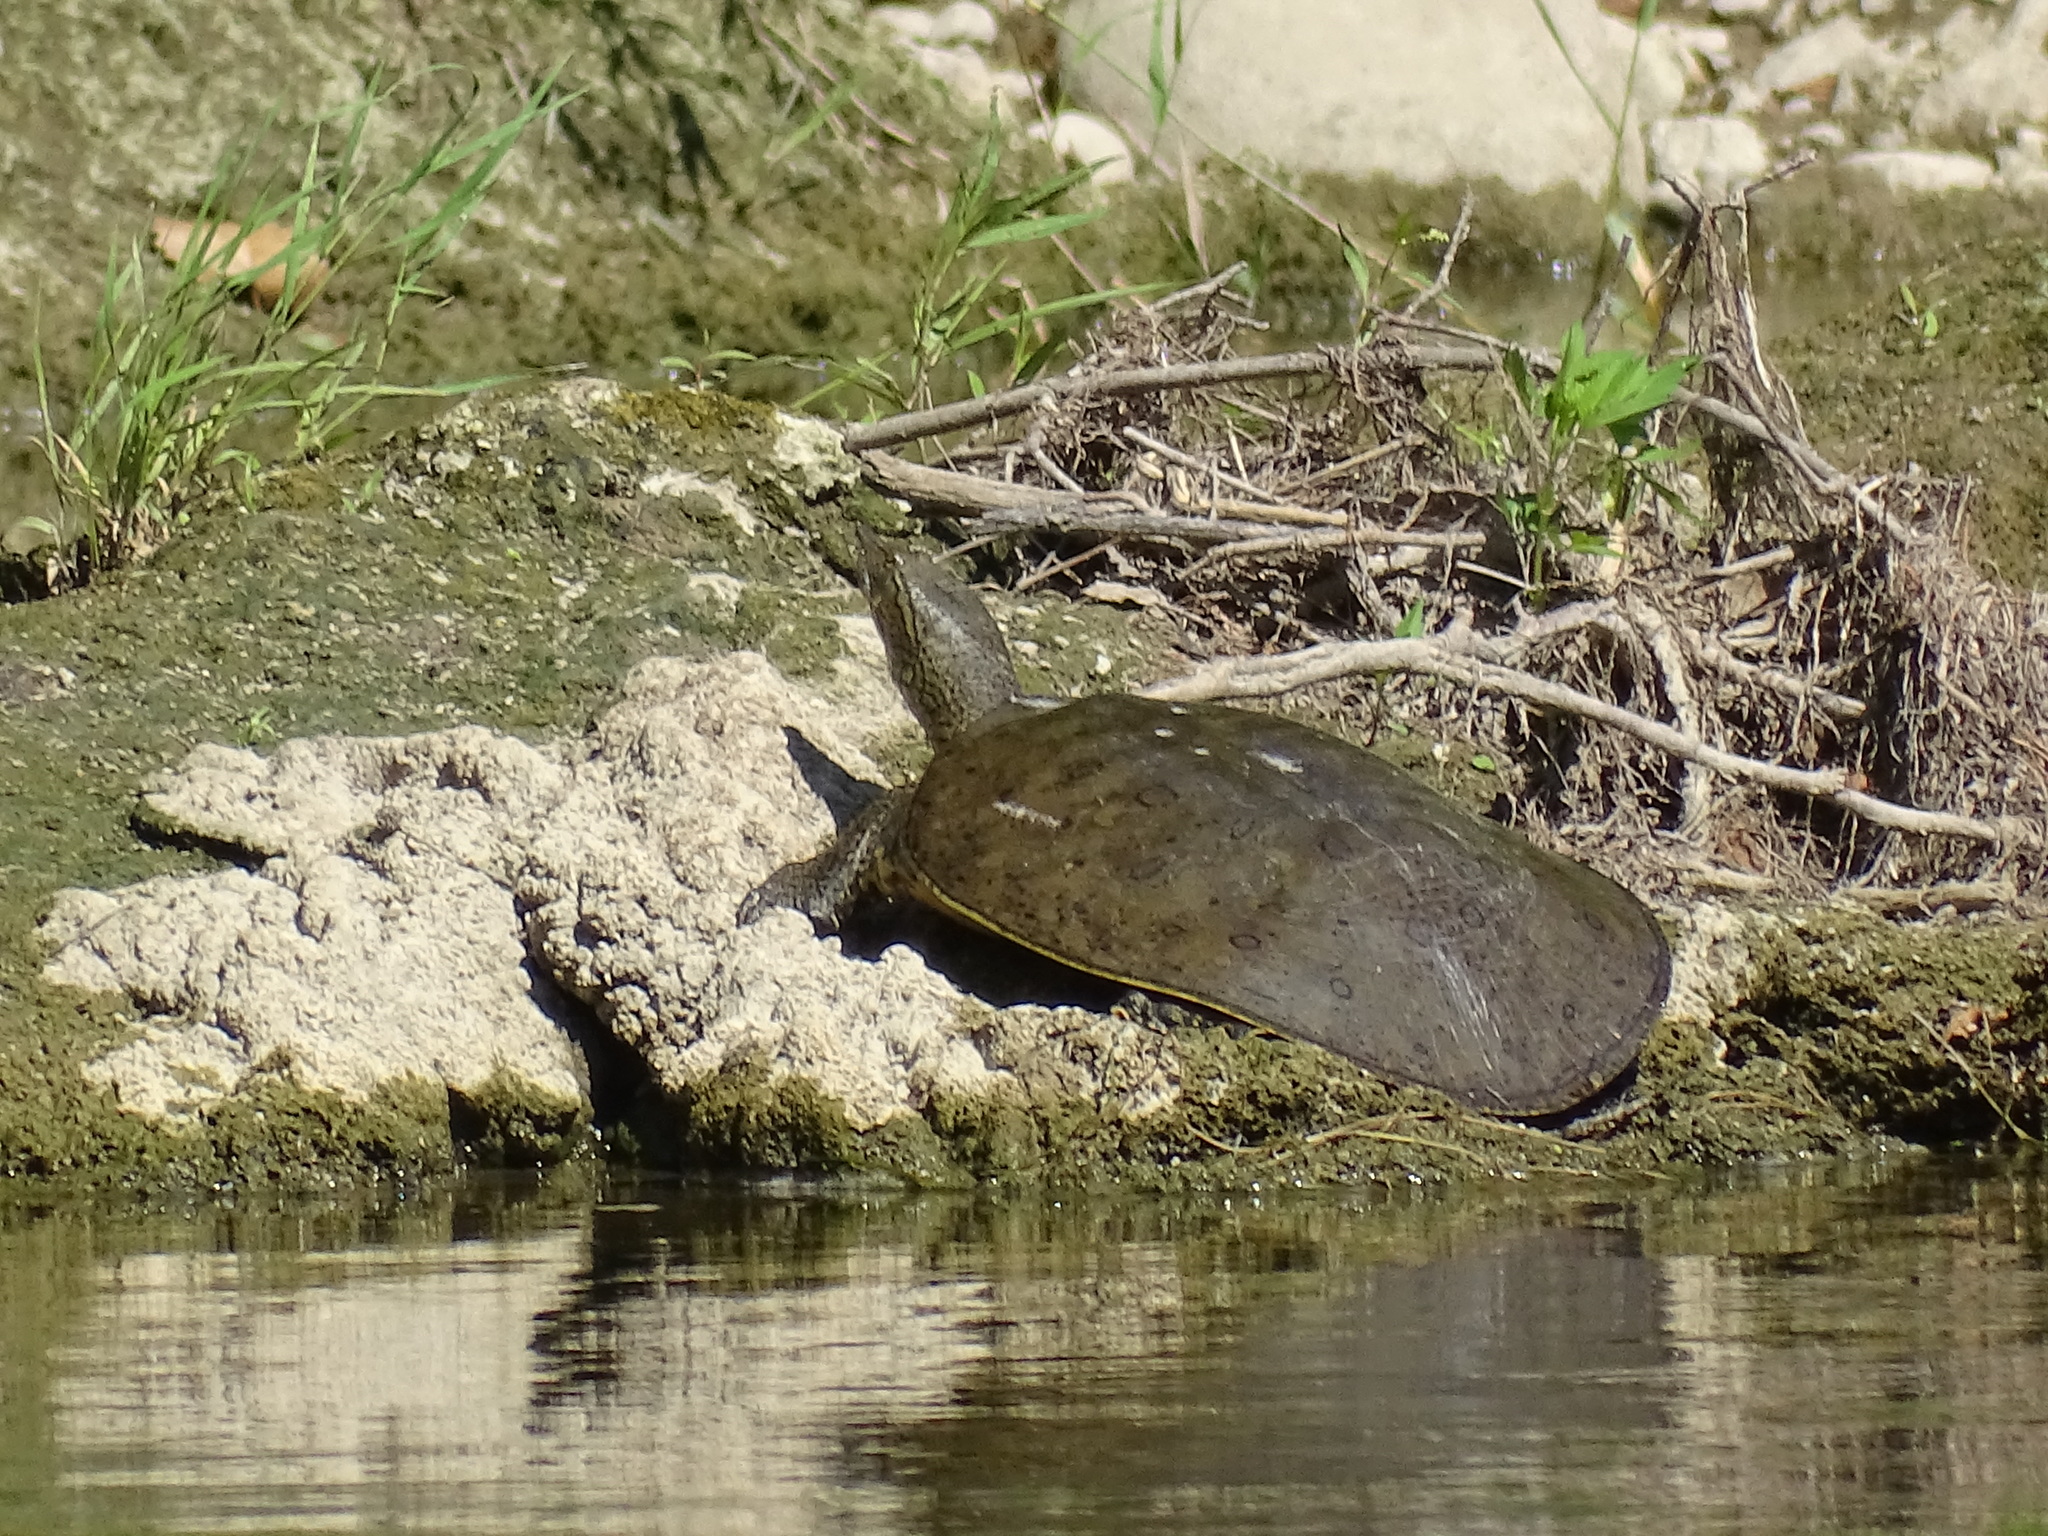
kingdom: Animalia
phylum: Chordata
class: Testudines
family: Trionychidae
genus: Apalone
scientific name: Apalone spinifera
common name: Spiny softshell turtle
